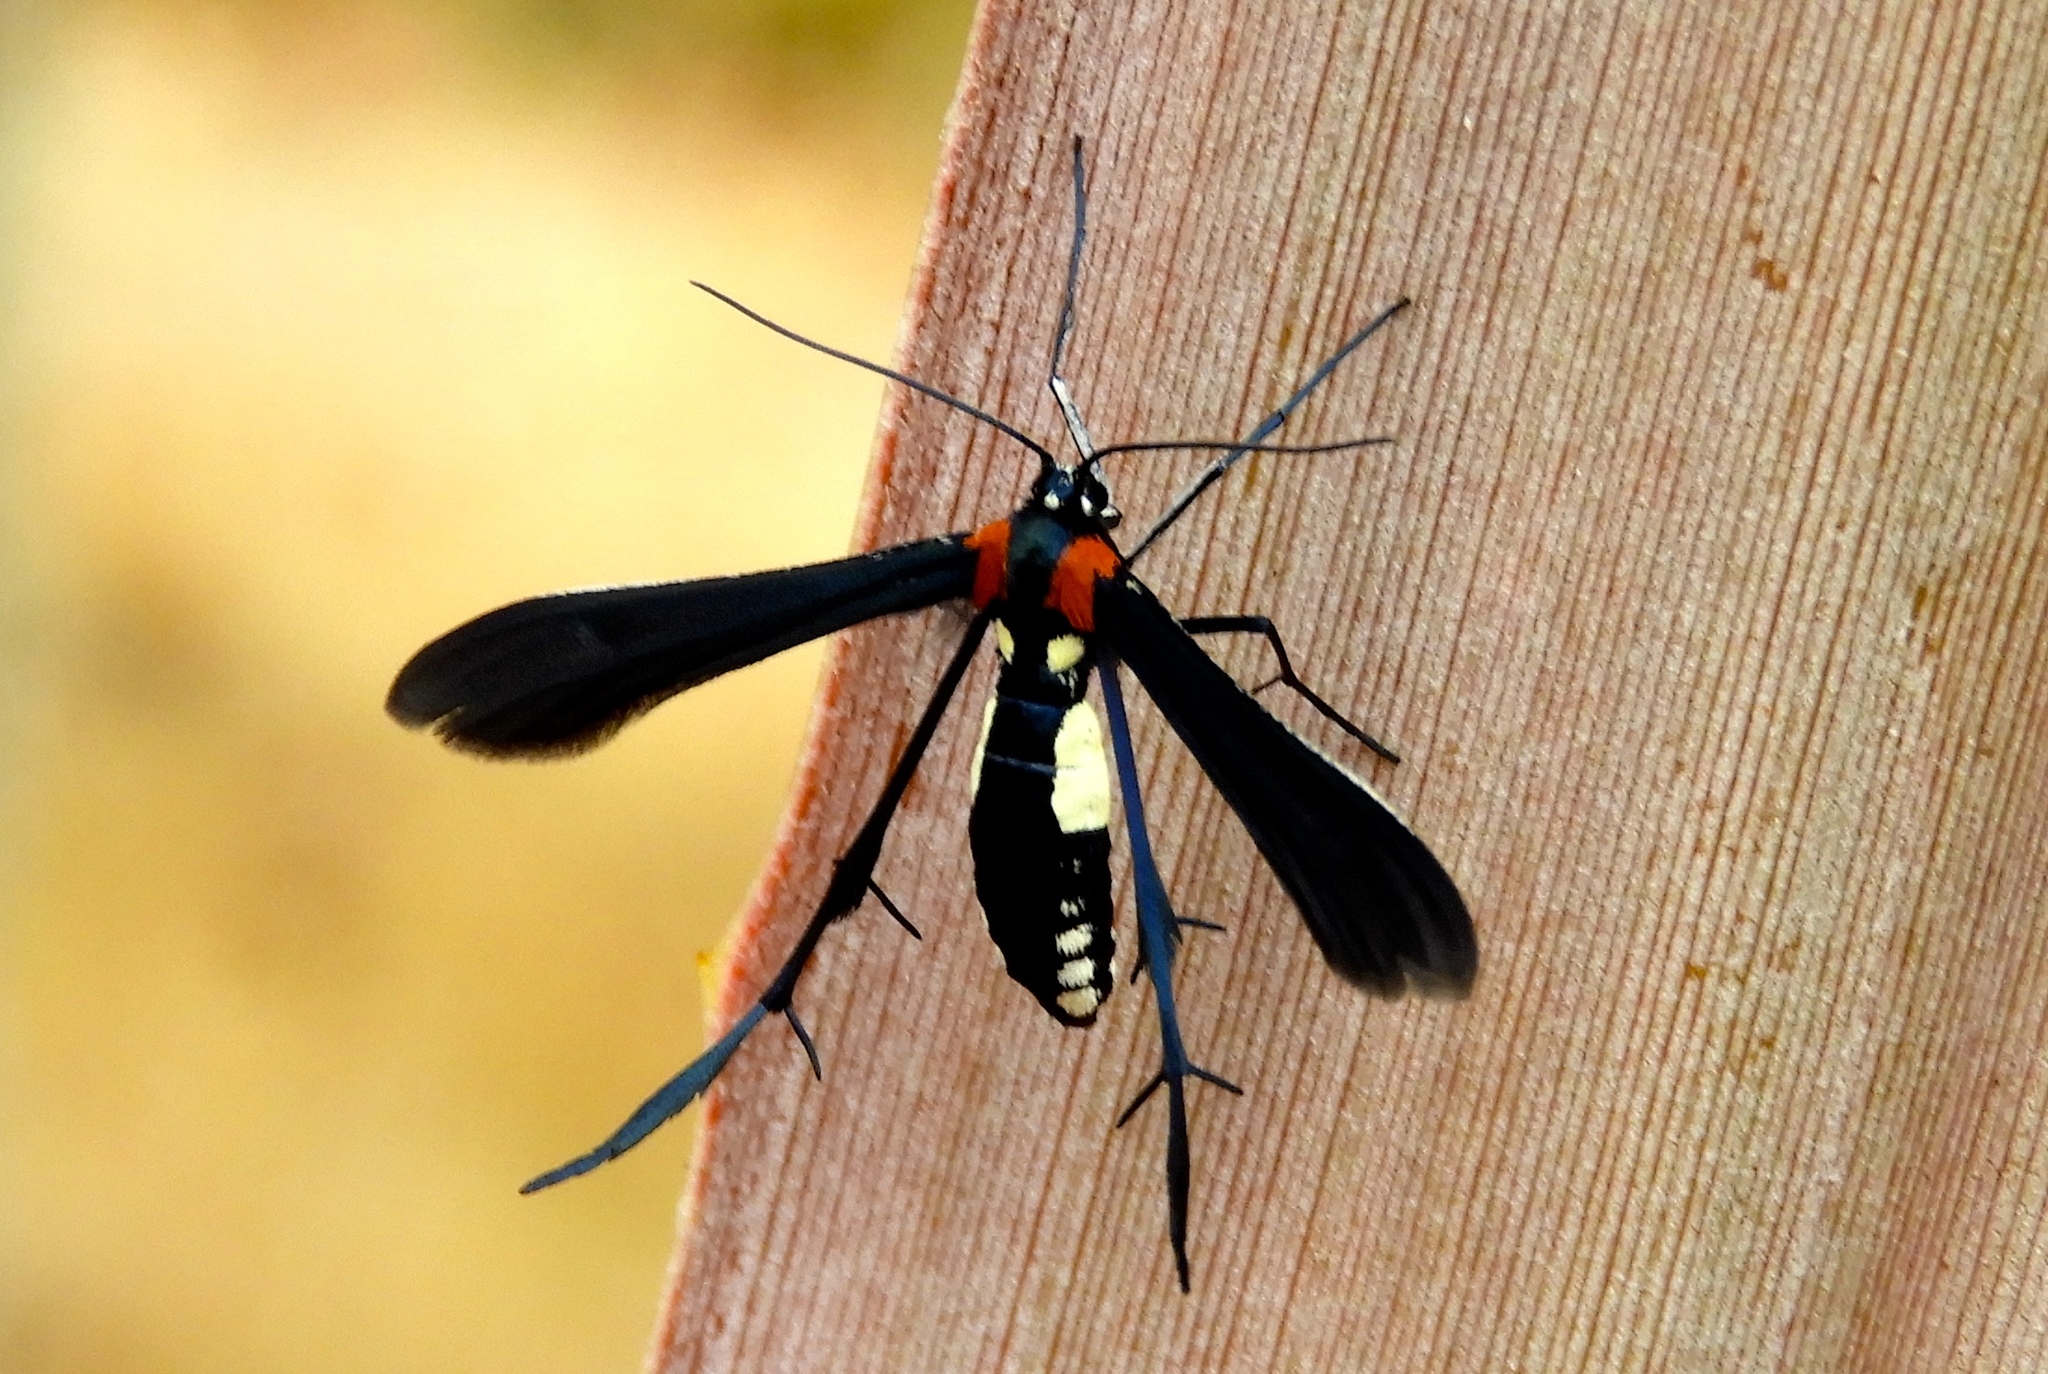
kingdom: Animalia
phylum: Arthropoda
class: Insecta
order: Lepidoptera
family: Pterophoridae
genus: Hellinsia
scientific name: Hellinsia chamelai
